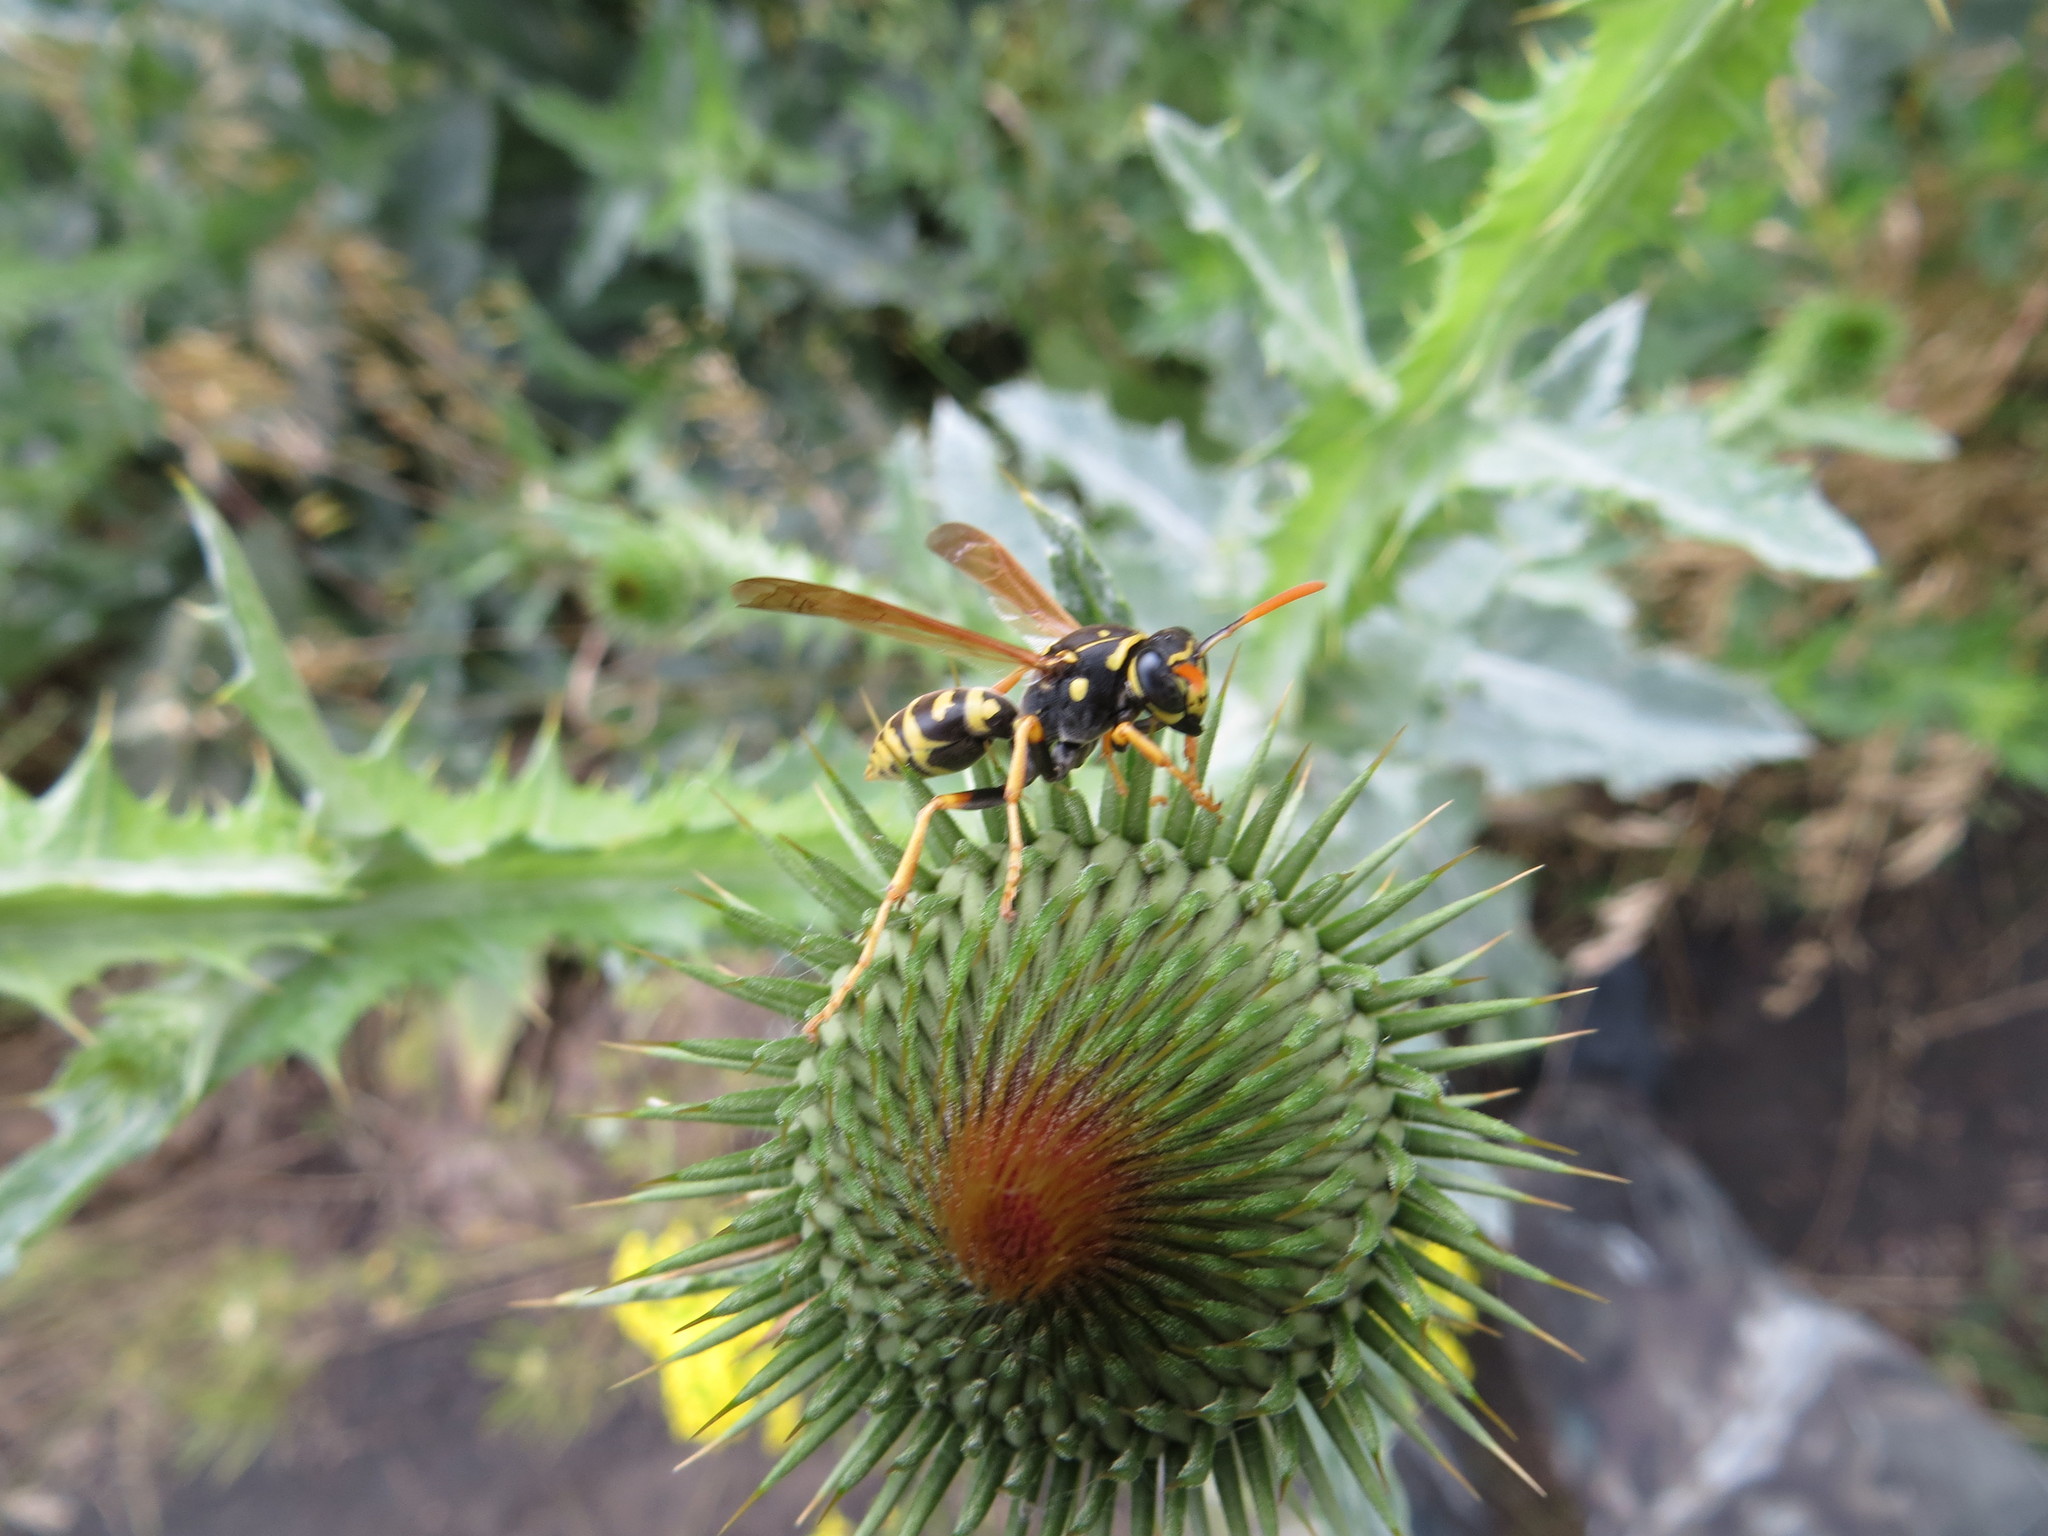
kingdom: Animalia
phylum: Arthropoda
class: Insecta
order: Hymenoptera
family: Eumenidae
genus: Polistes
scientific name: Polistes dominula
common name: Paper wasp
